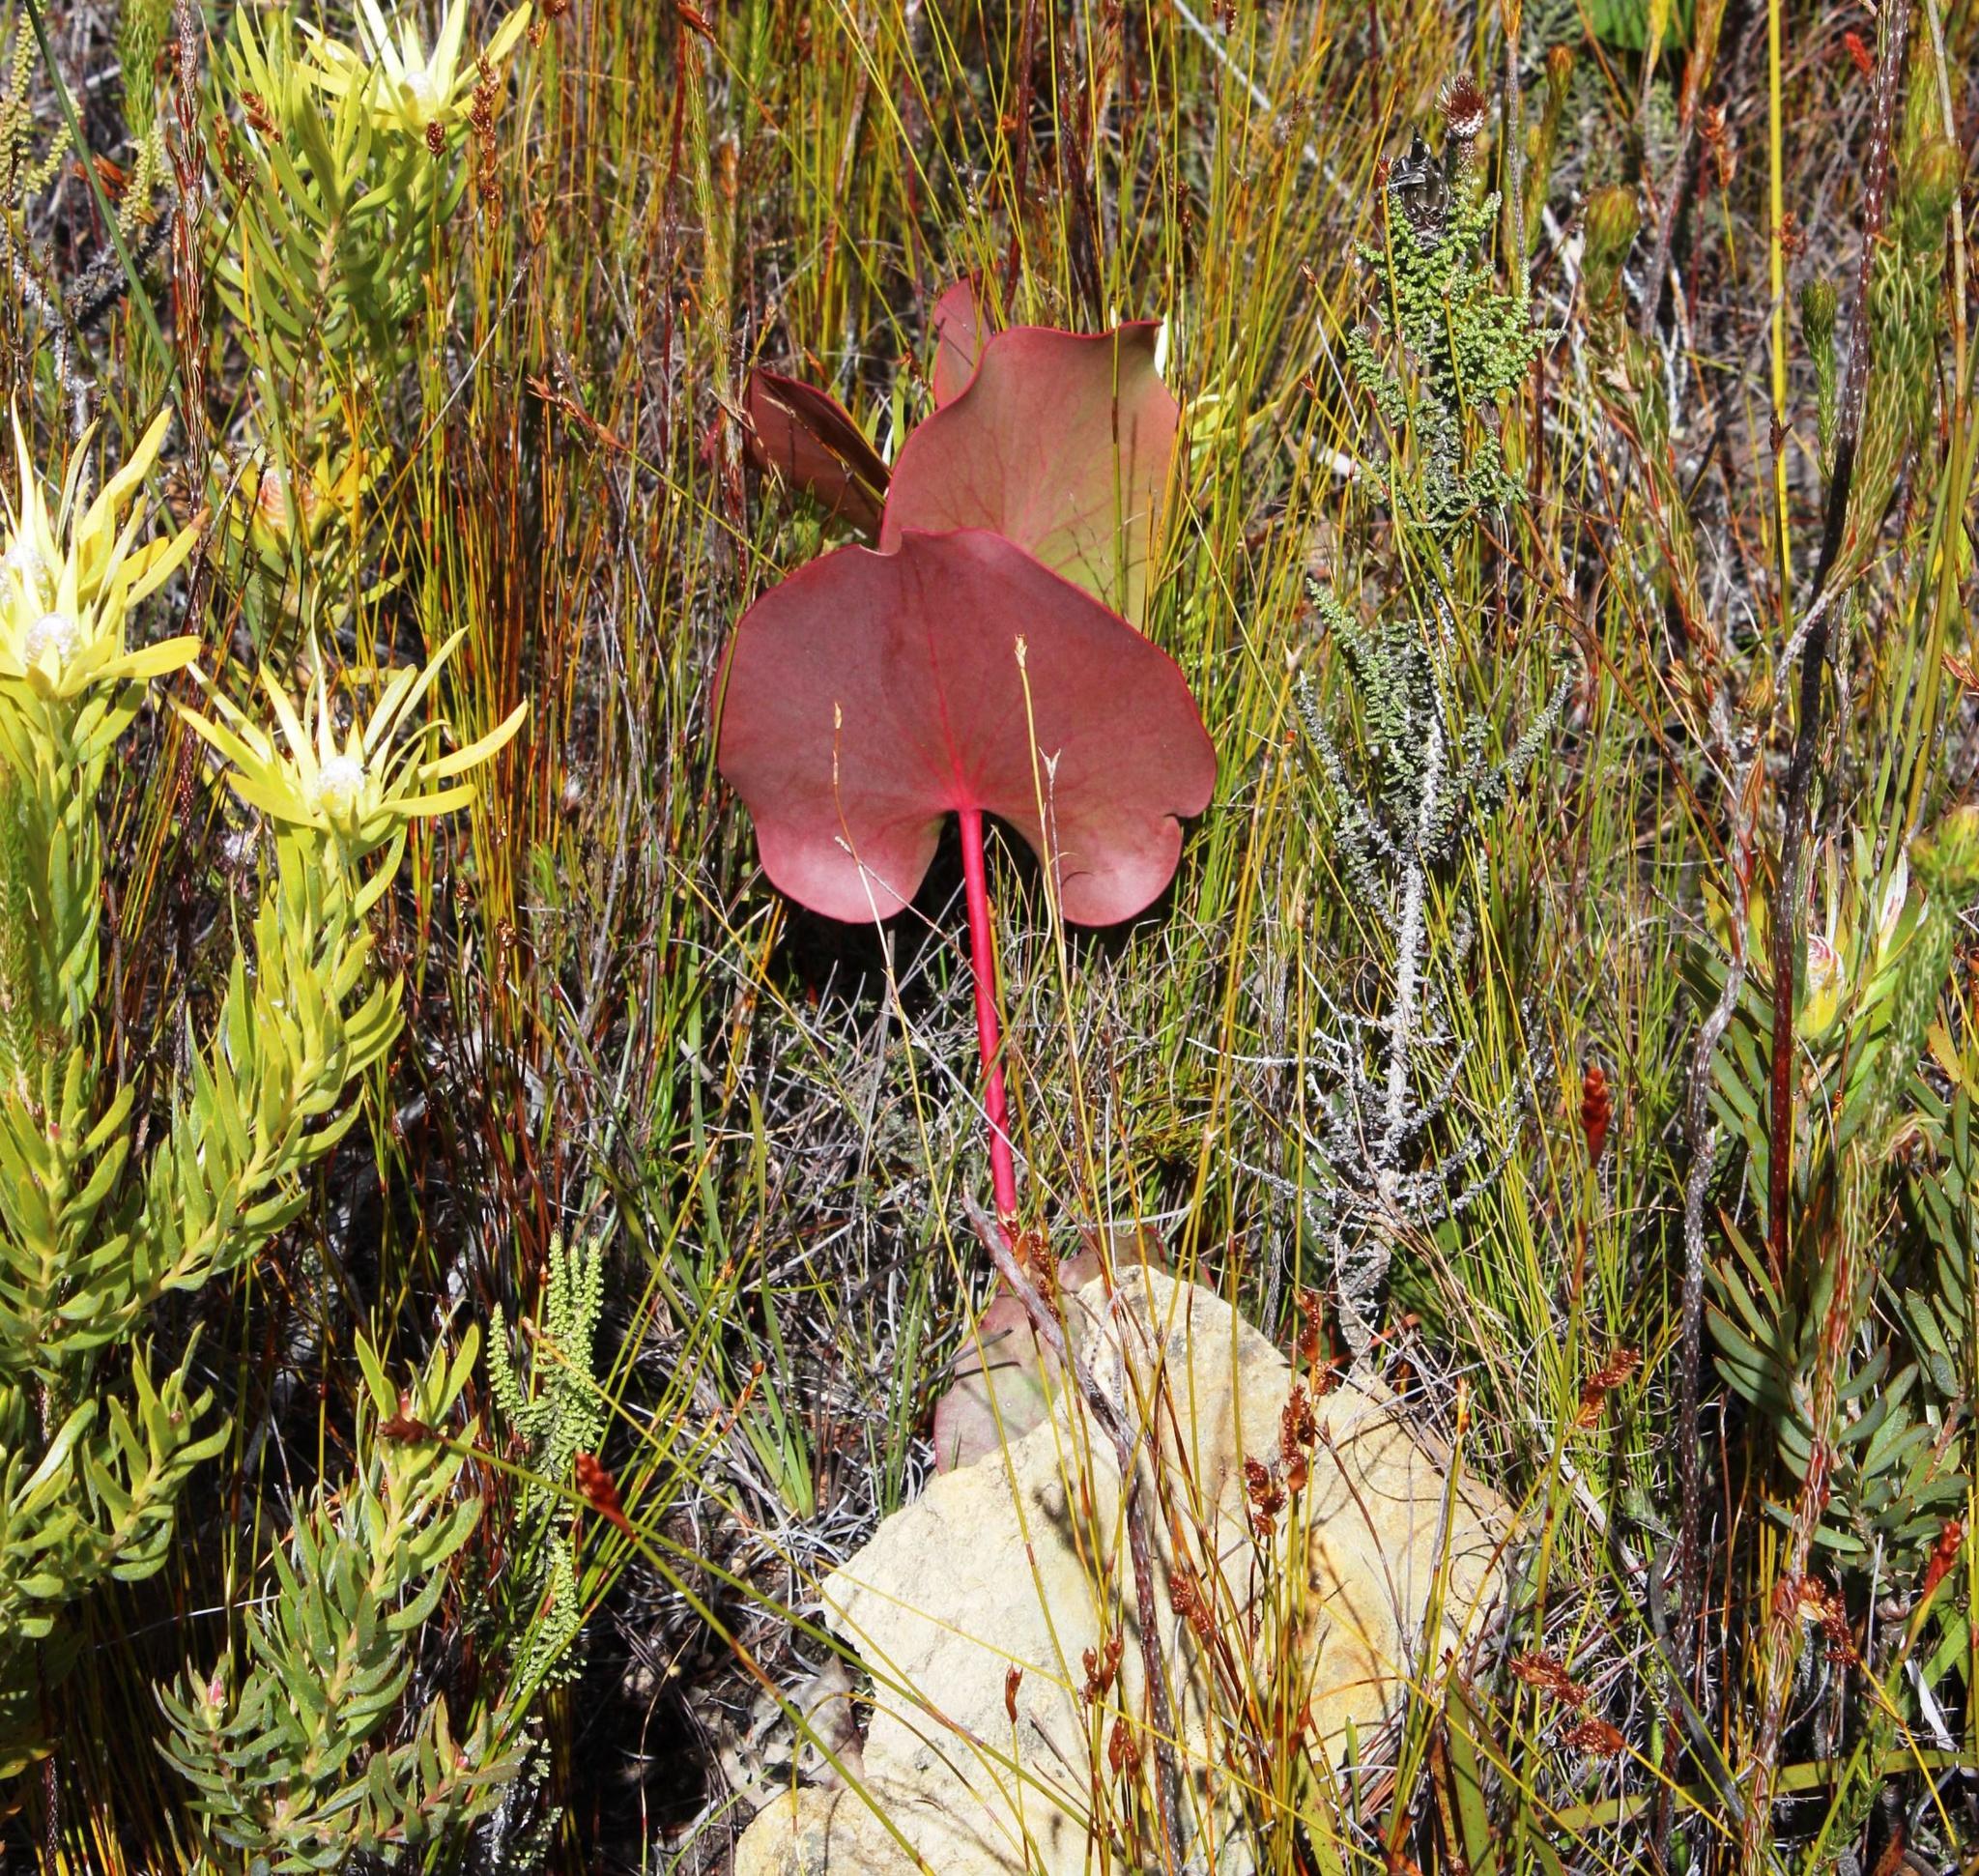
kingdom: Plantae
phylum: Tracheophyta
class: Magnoliopsida
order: Proteales
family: Proteaceae
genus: Protea
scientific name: Protea cordata
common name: Heart-leaf sugarbush
